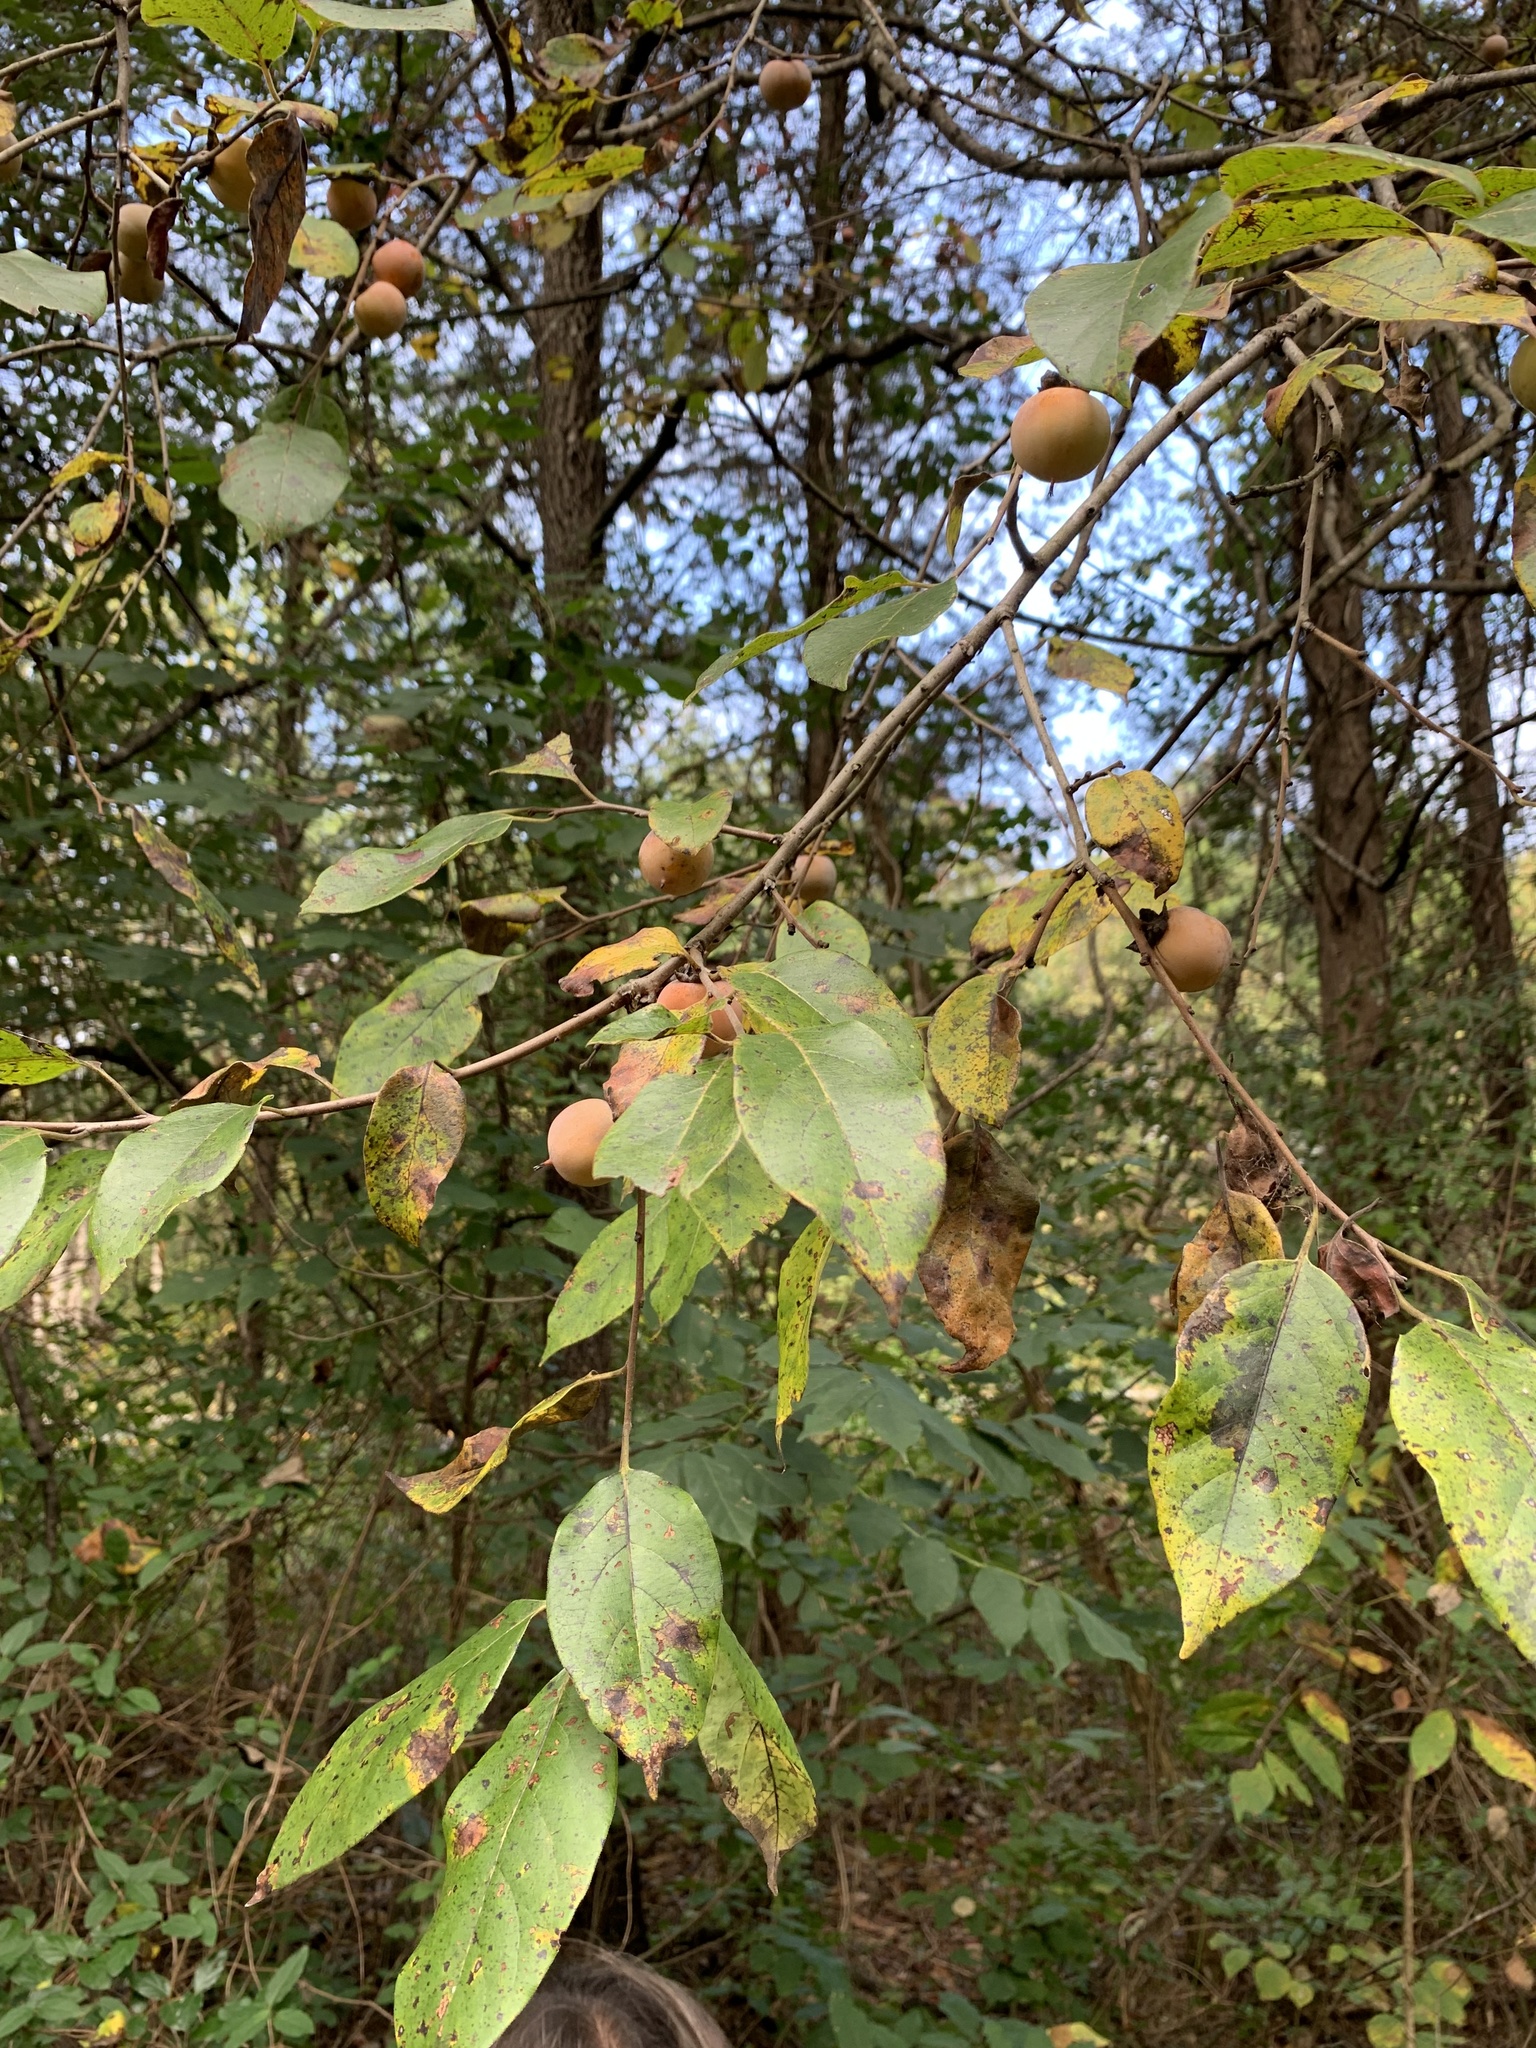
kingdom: Plantae
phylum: Tracheophyta
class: Magnoliopsida
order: Ericales
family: Ebenaceae
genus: Diospyros
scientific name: Diospyros virginiana
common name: Persimmon
